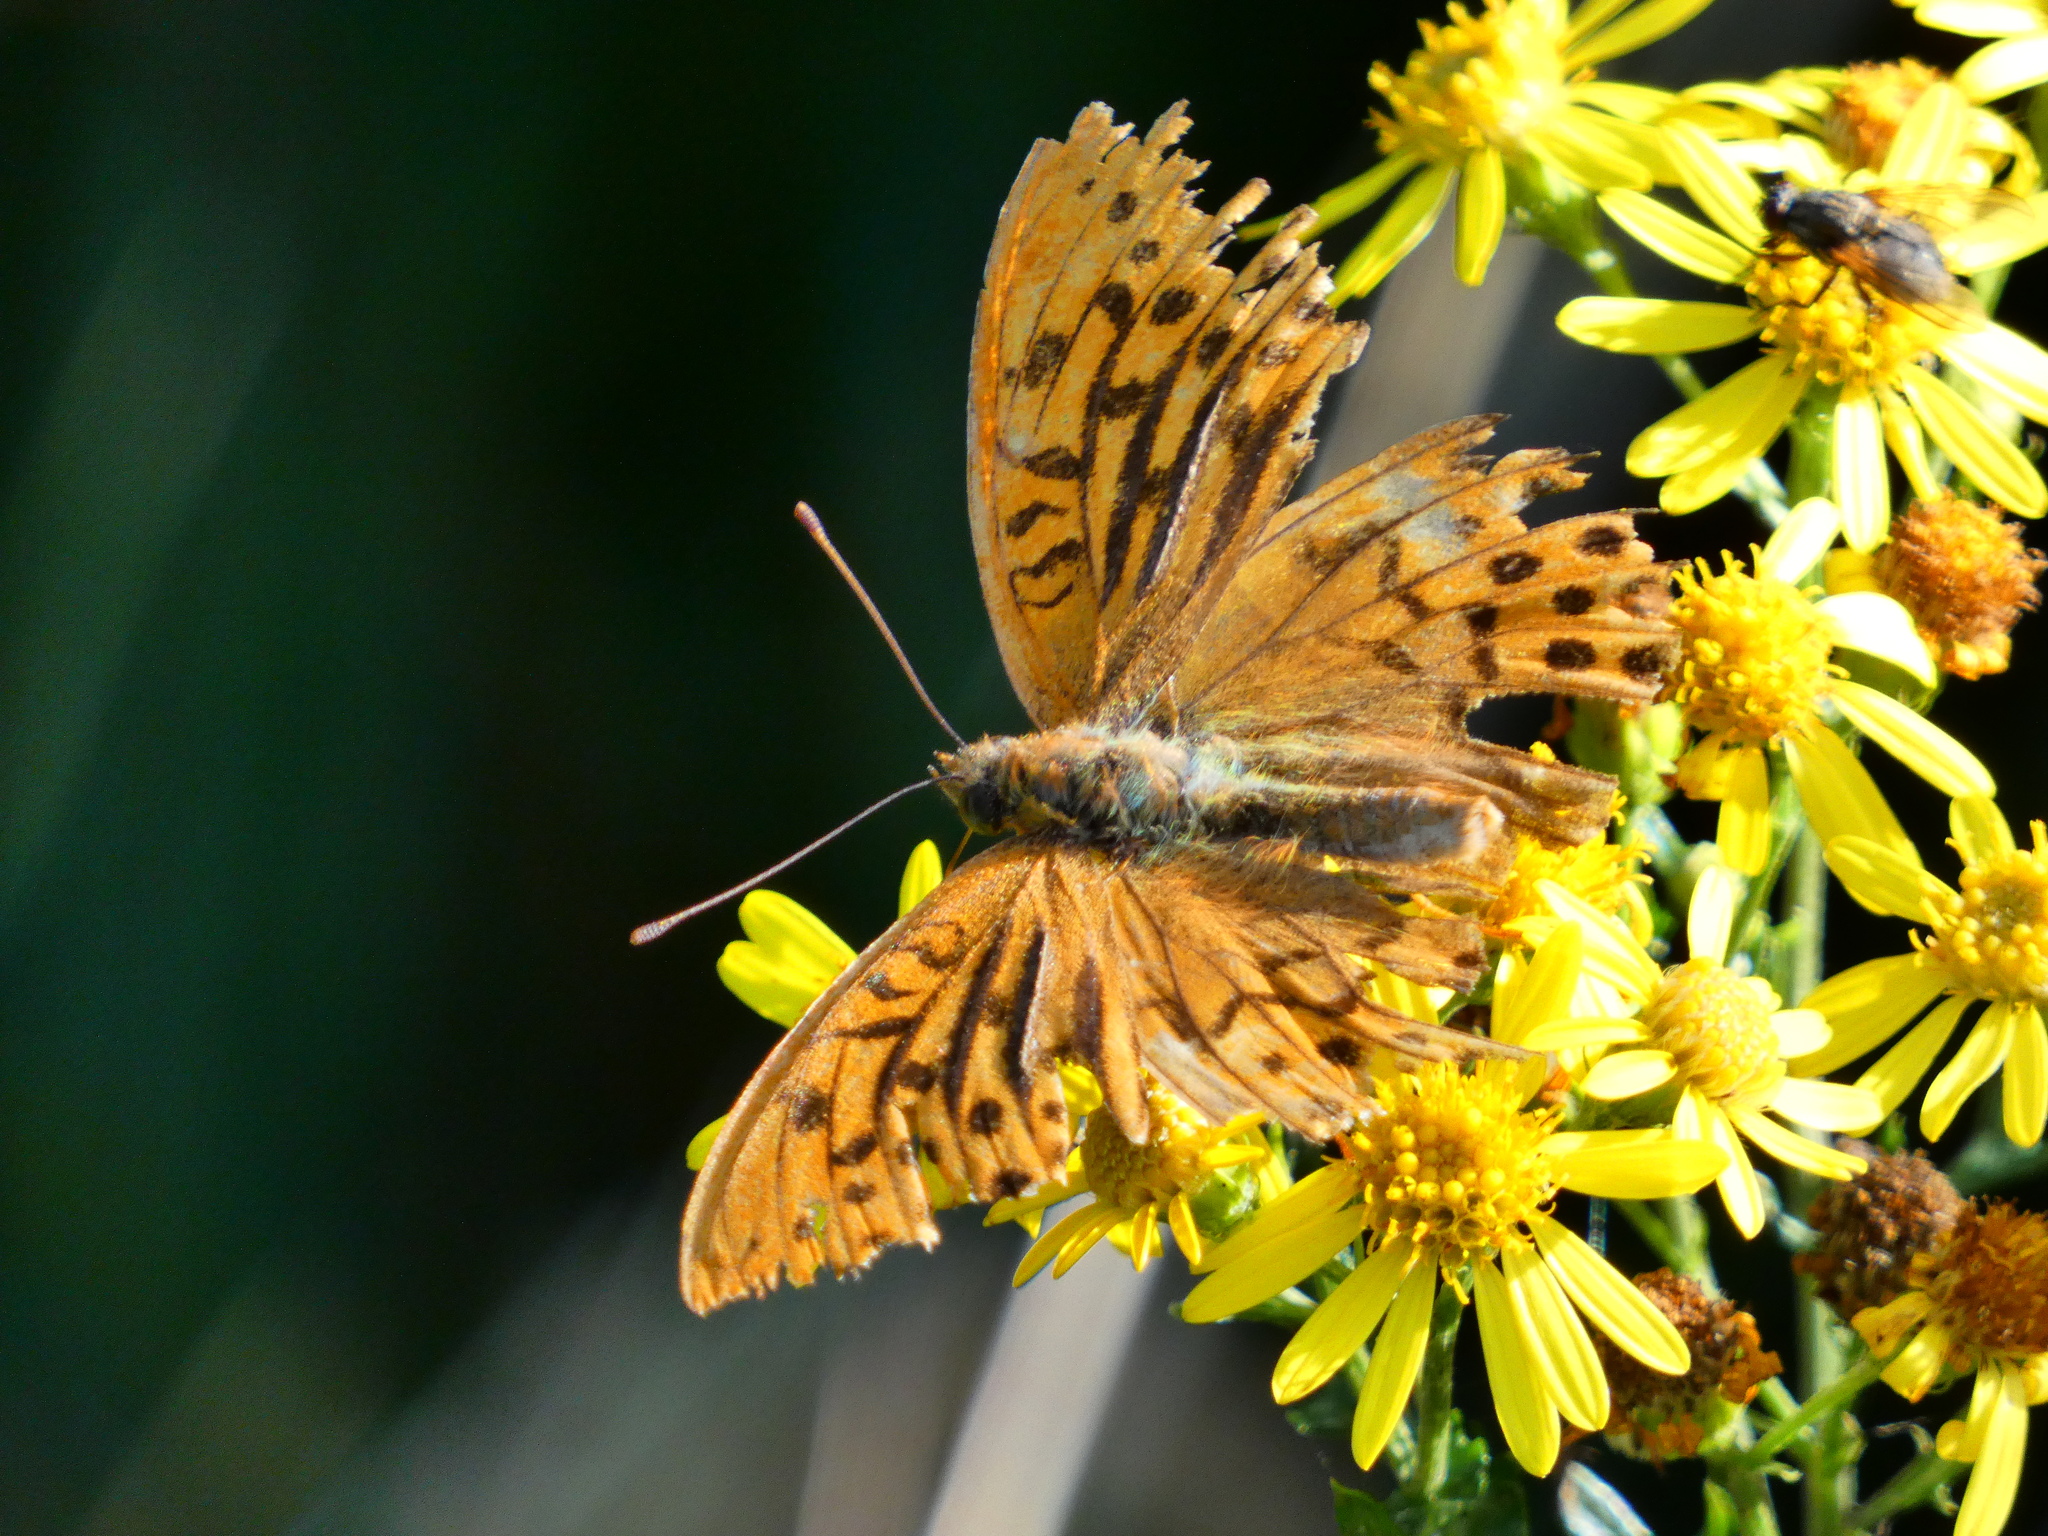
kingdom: Animalia
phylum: Arthropoda
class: Insecta
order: Lepidoptera
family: Nymphalidae
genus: Argynnis
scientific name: Argynnis paphia
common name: Silver-washed fritillary
